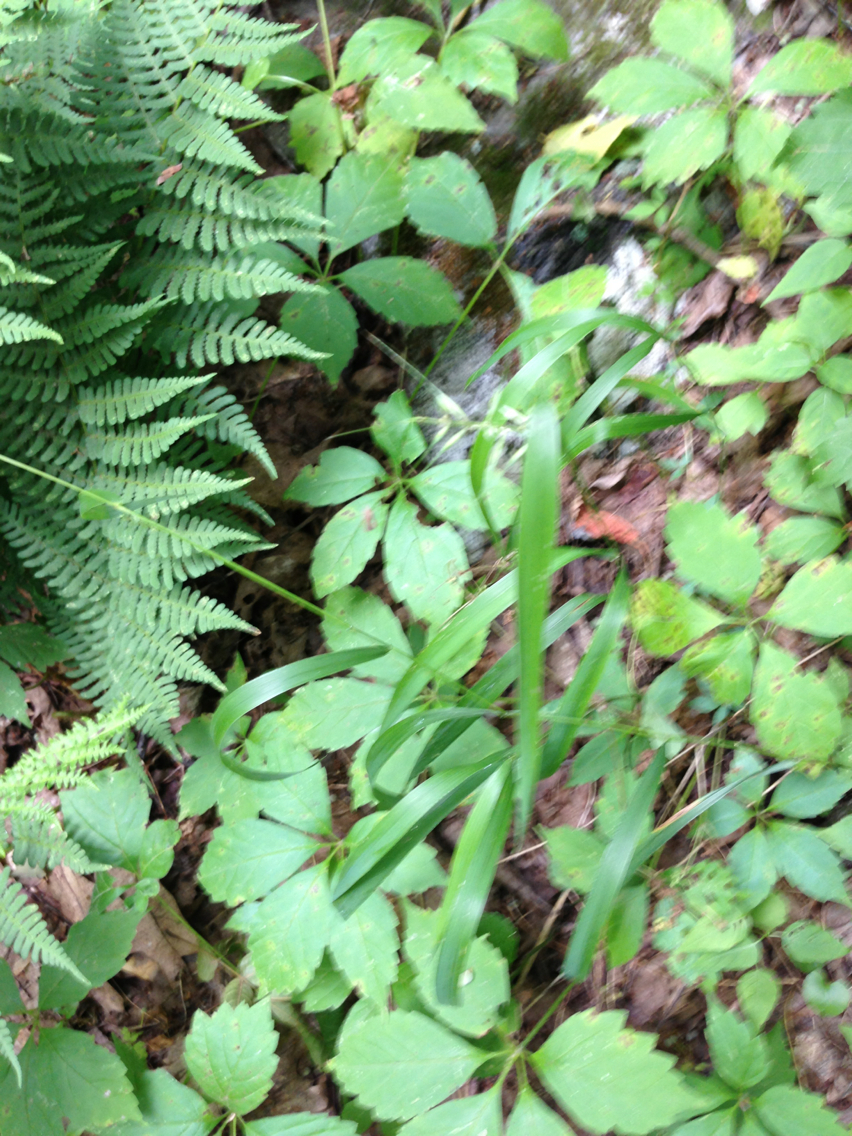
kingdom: Plantae
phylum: Tracheophyta
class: Liliopsida
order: Poales
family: Poaceae
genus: Elymus
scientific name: Elymus hystrix
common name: Bottlebrush grass
